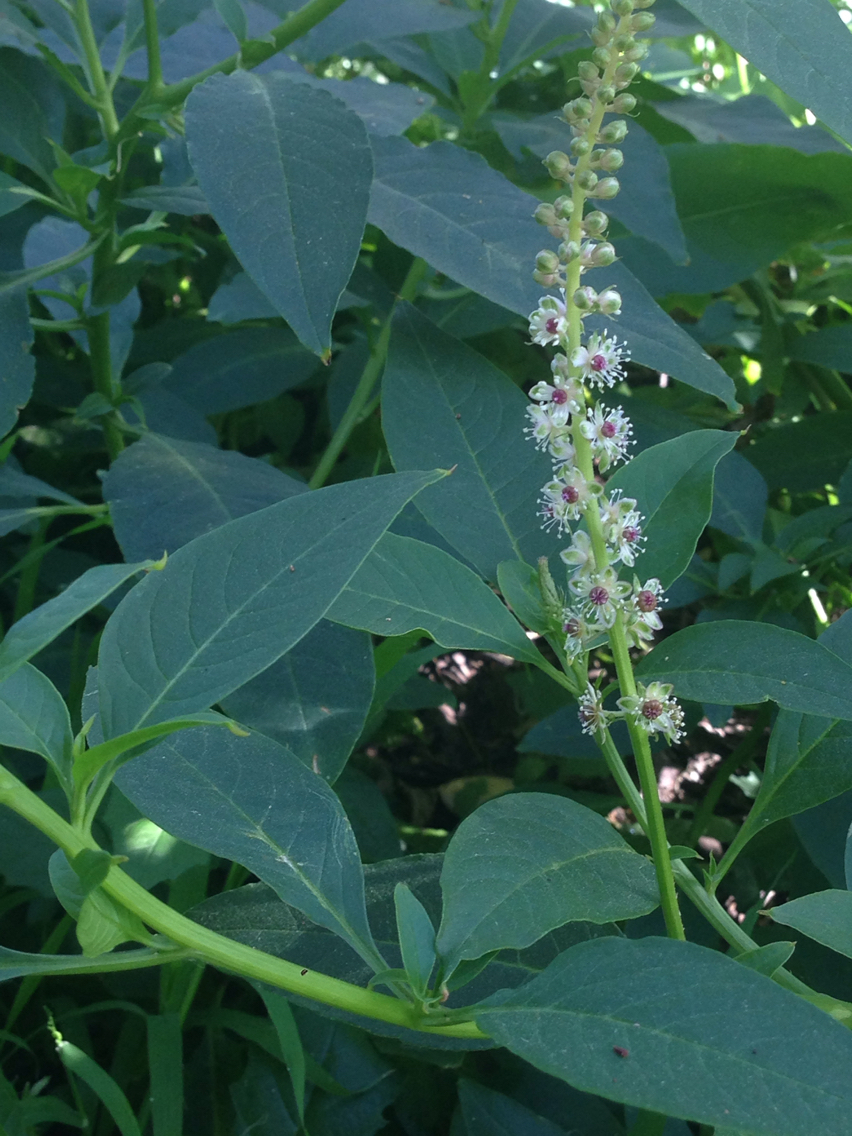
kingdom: Plantae
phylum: Tracheophyta
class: Magnoliopsida
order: Caryophyllales
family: Phytolaccaceae
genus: Phytolacca
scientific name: Phytolacca heterotepala
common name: Mexican pokeweed
